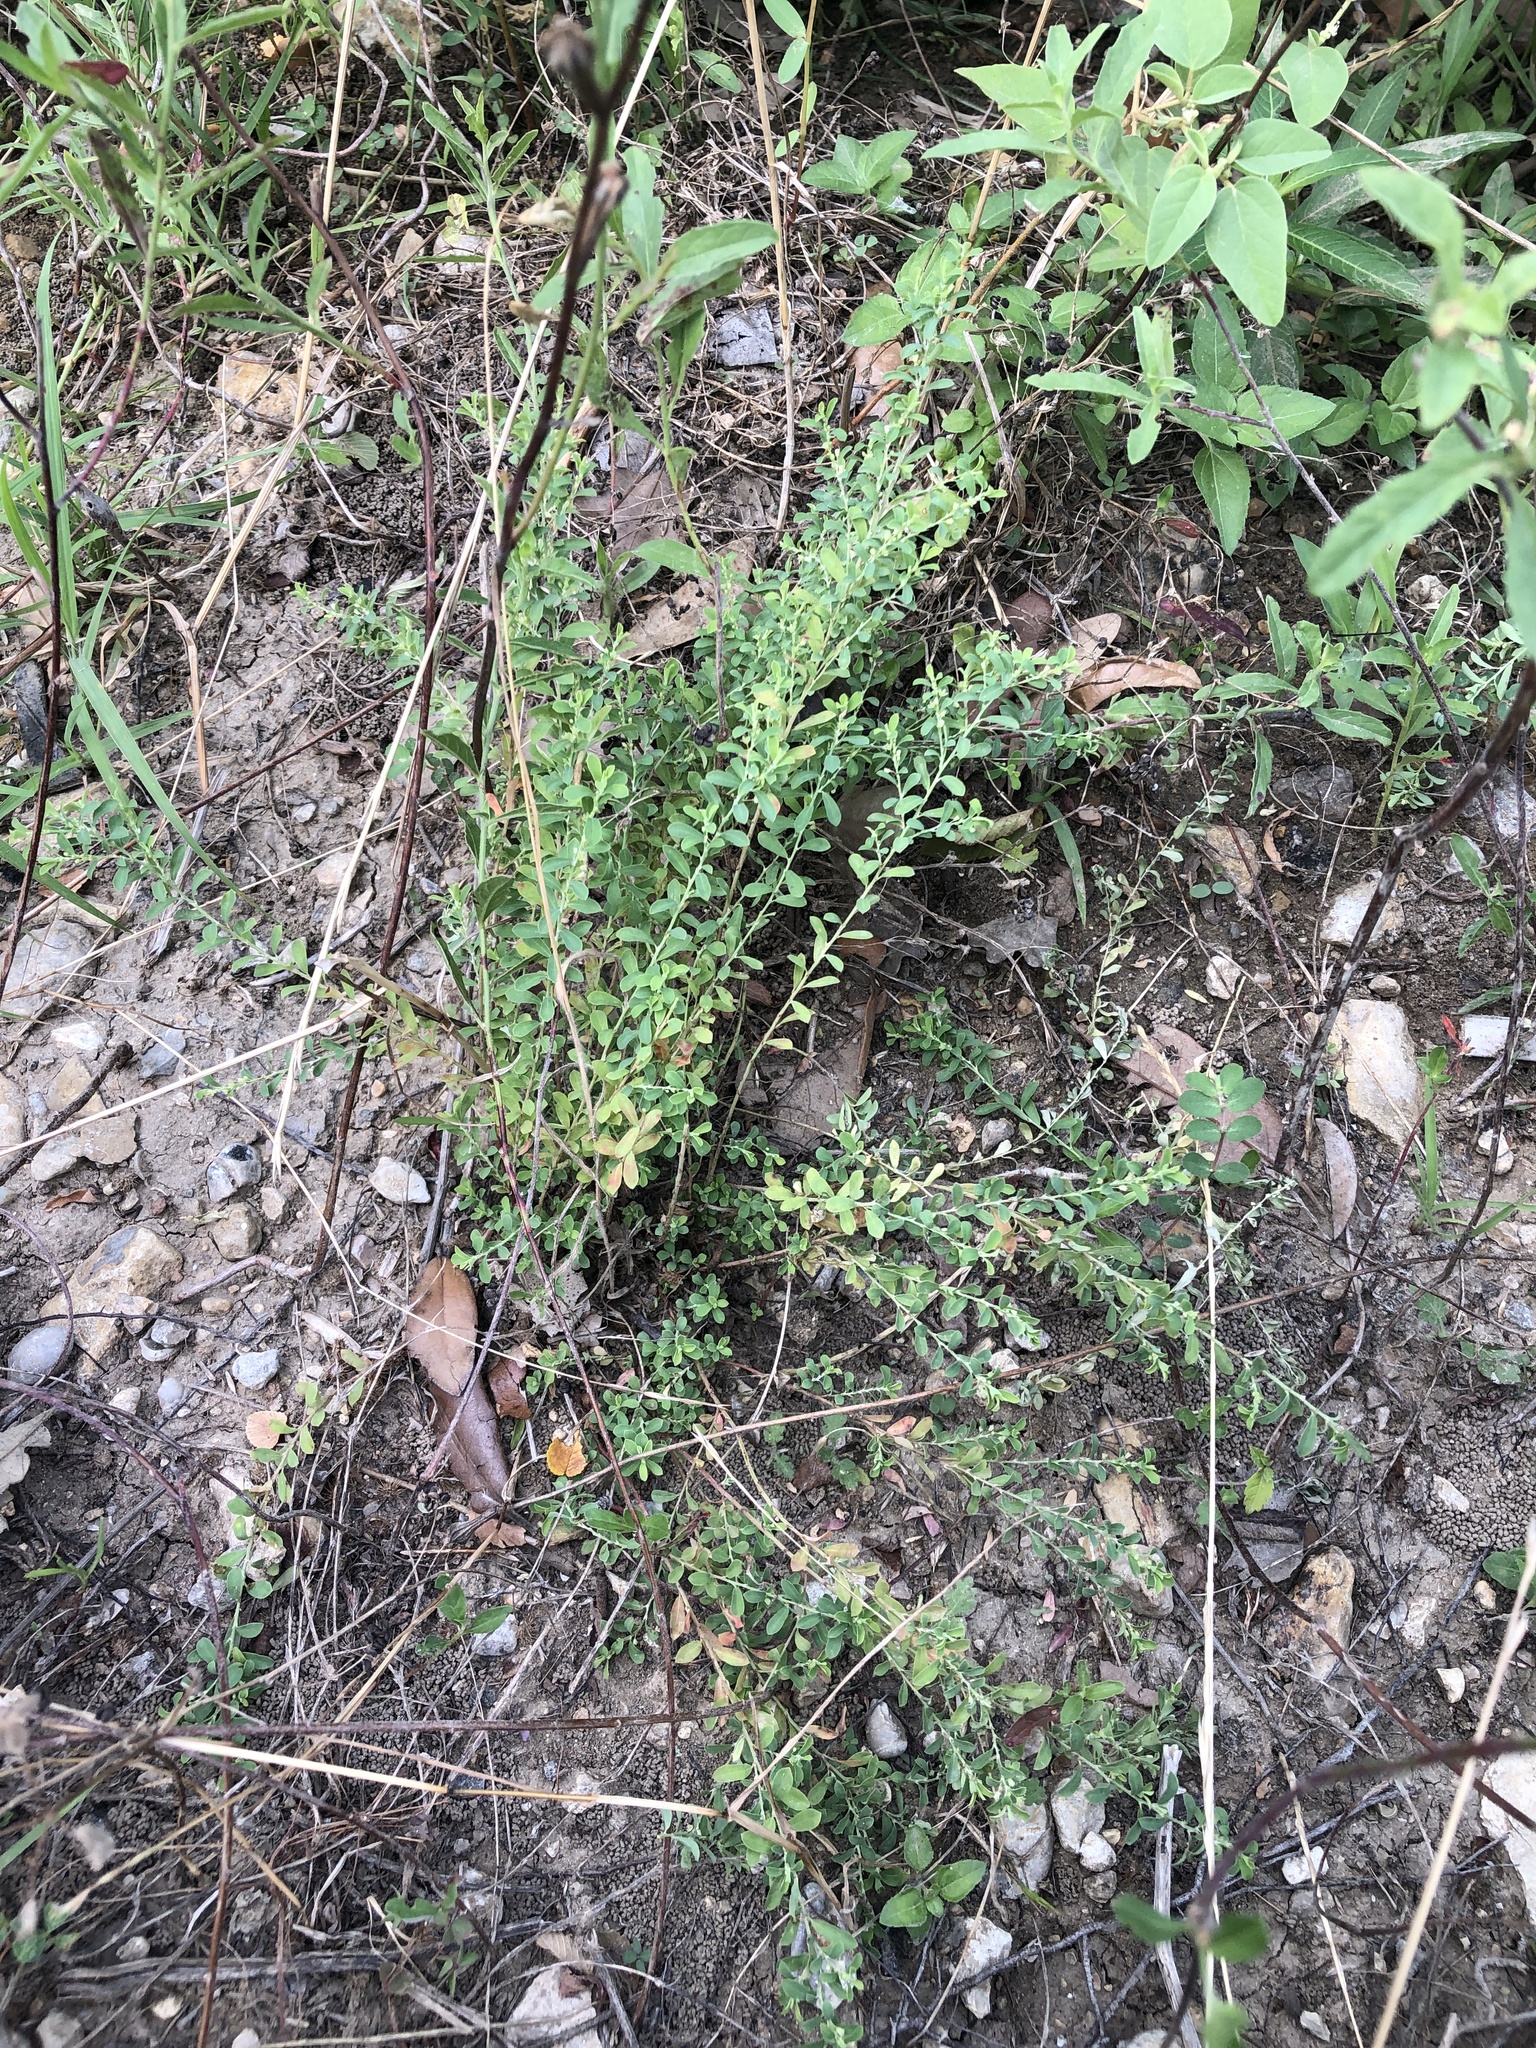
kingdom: Plantae
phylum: Tracheophyta
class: Magnoliopsida
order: Malpighiales
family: Phyllanthaceae
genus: Phyllanthus
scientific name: Phyllanthus polygonoides
